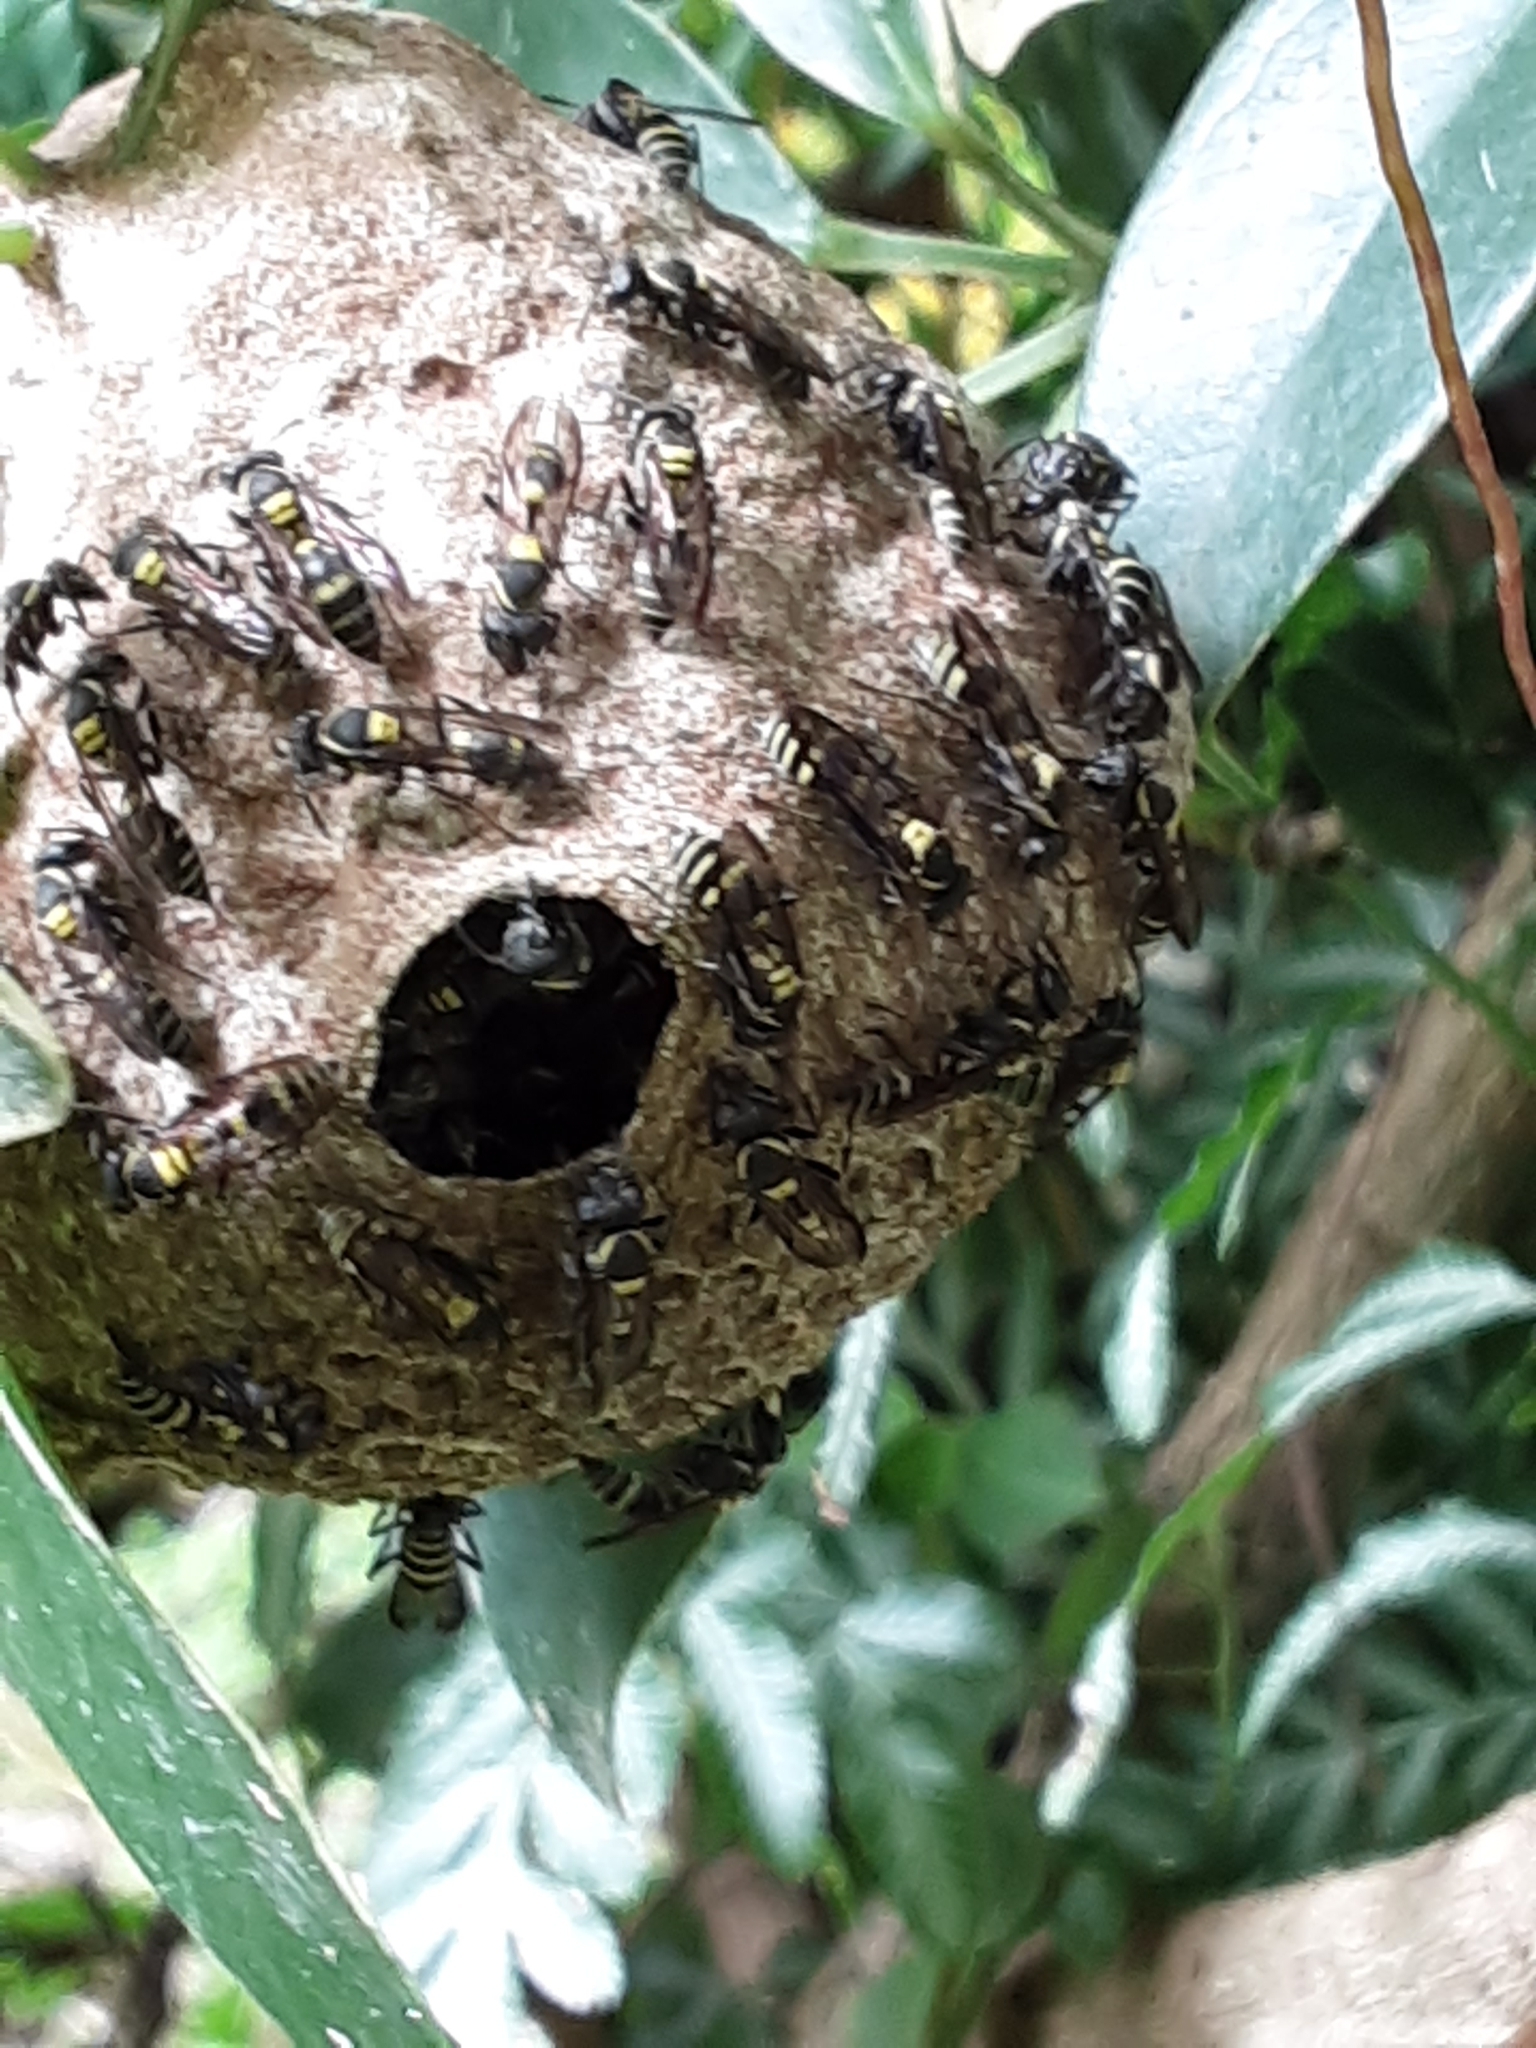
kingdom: Animalia
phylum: Arthropoda
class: Insecta
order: Hymenoptera
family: Eumenidae
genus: Polybia
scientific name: Polybia occidentalis
